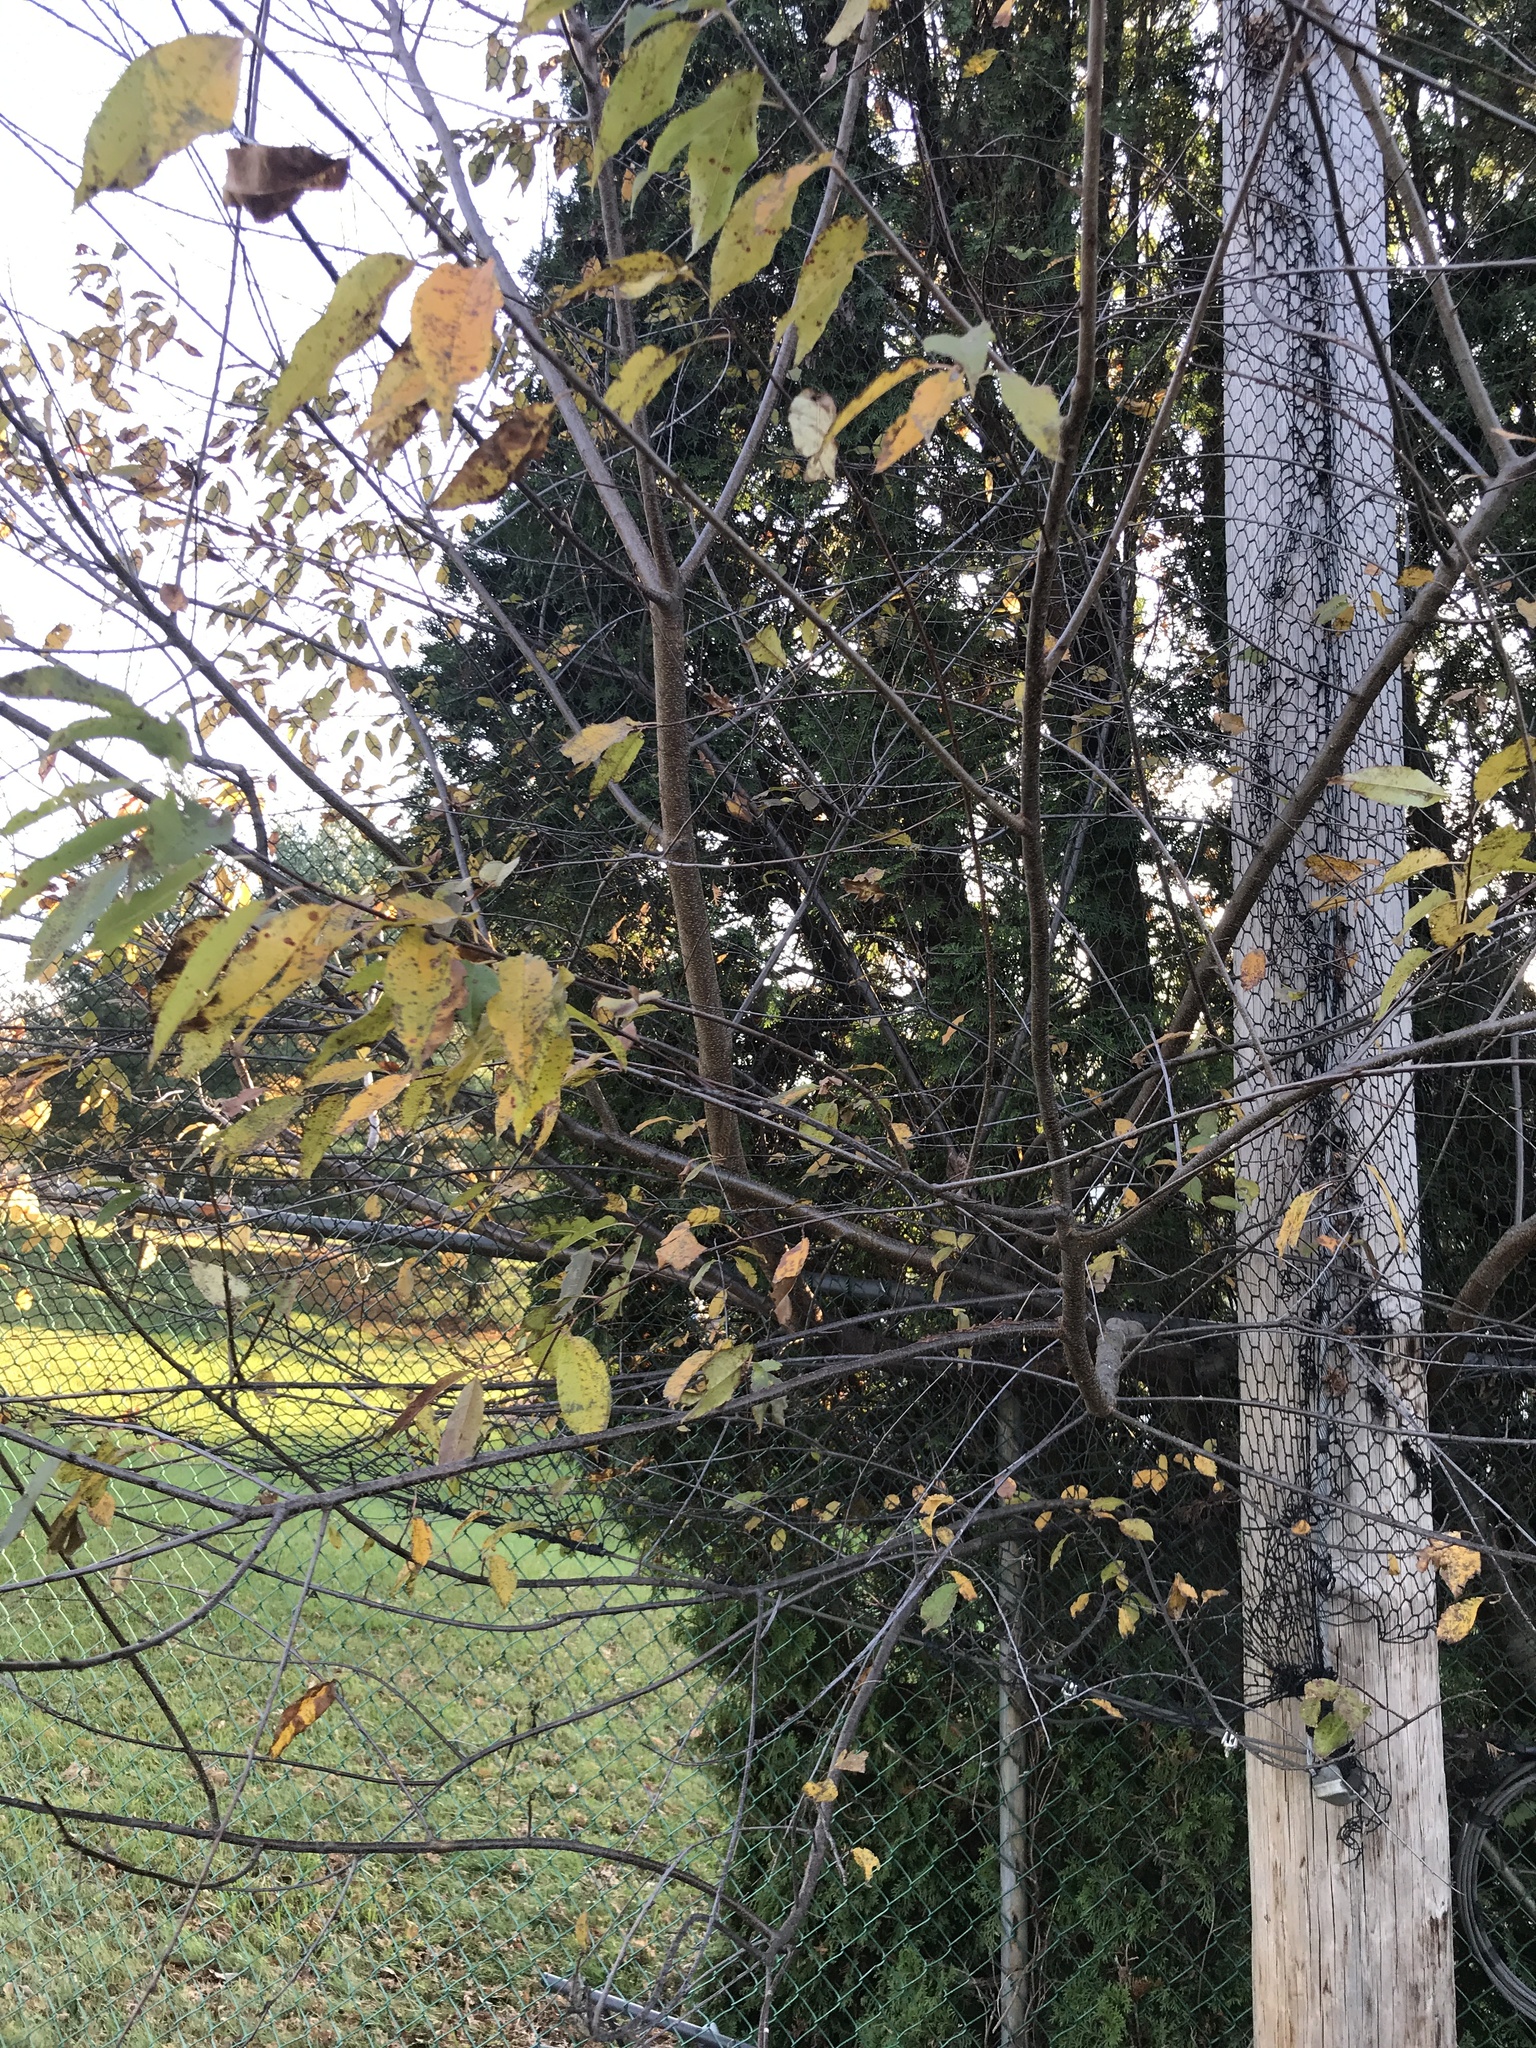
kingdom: Plantae
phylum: Tracheophyta
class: Magnoliopsida
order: Rosales
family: Rosaceae
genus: Prunus
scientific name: Prunus serotina
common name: Black cherry
